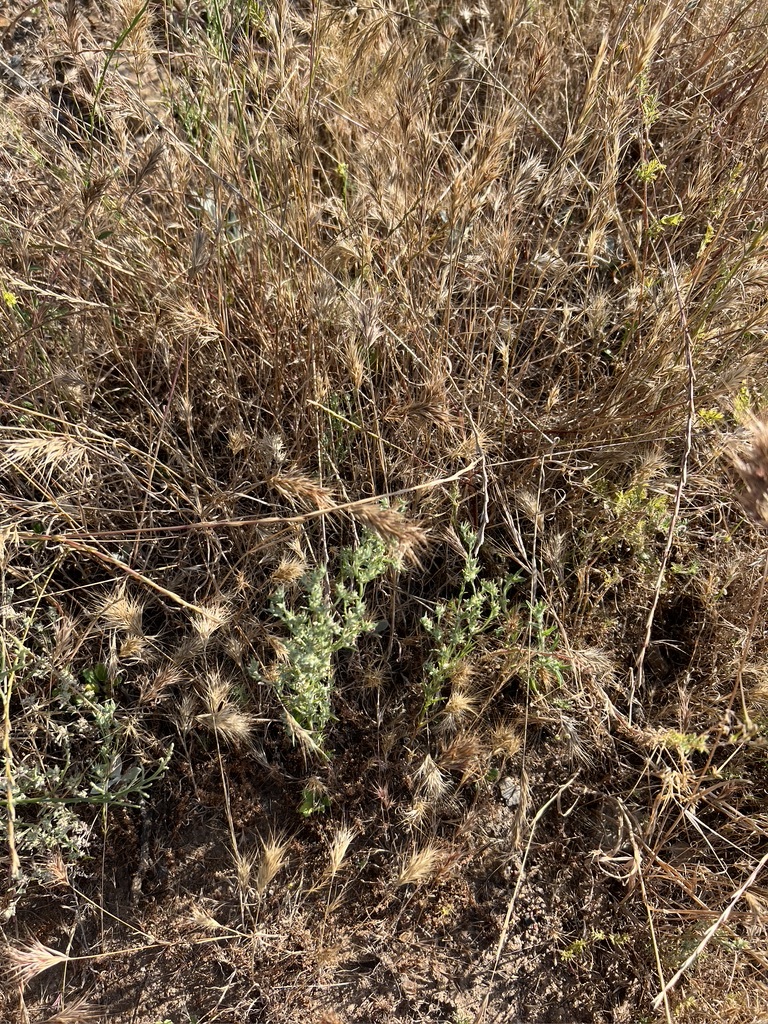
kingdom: Plantae
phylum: Tracheophyta
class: Magnoliopsida
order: Asterales
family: Asteraceae
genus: Logfia
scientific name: Logfia gallica
